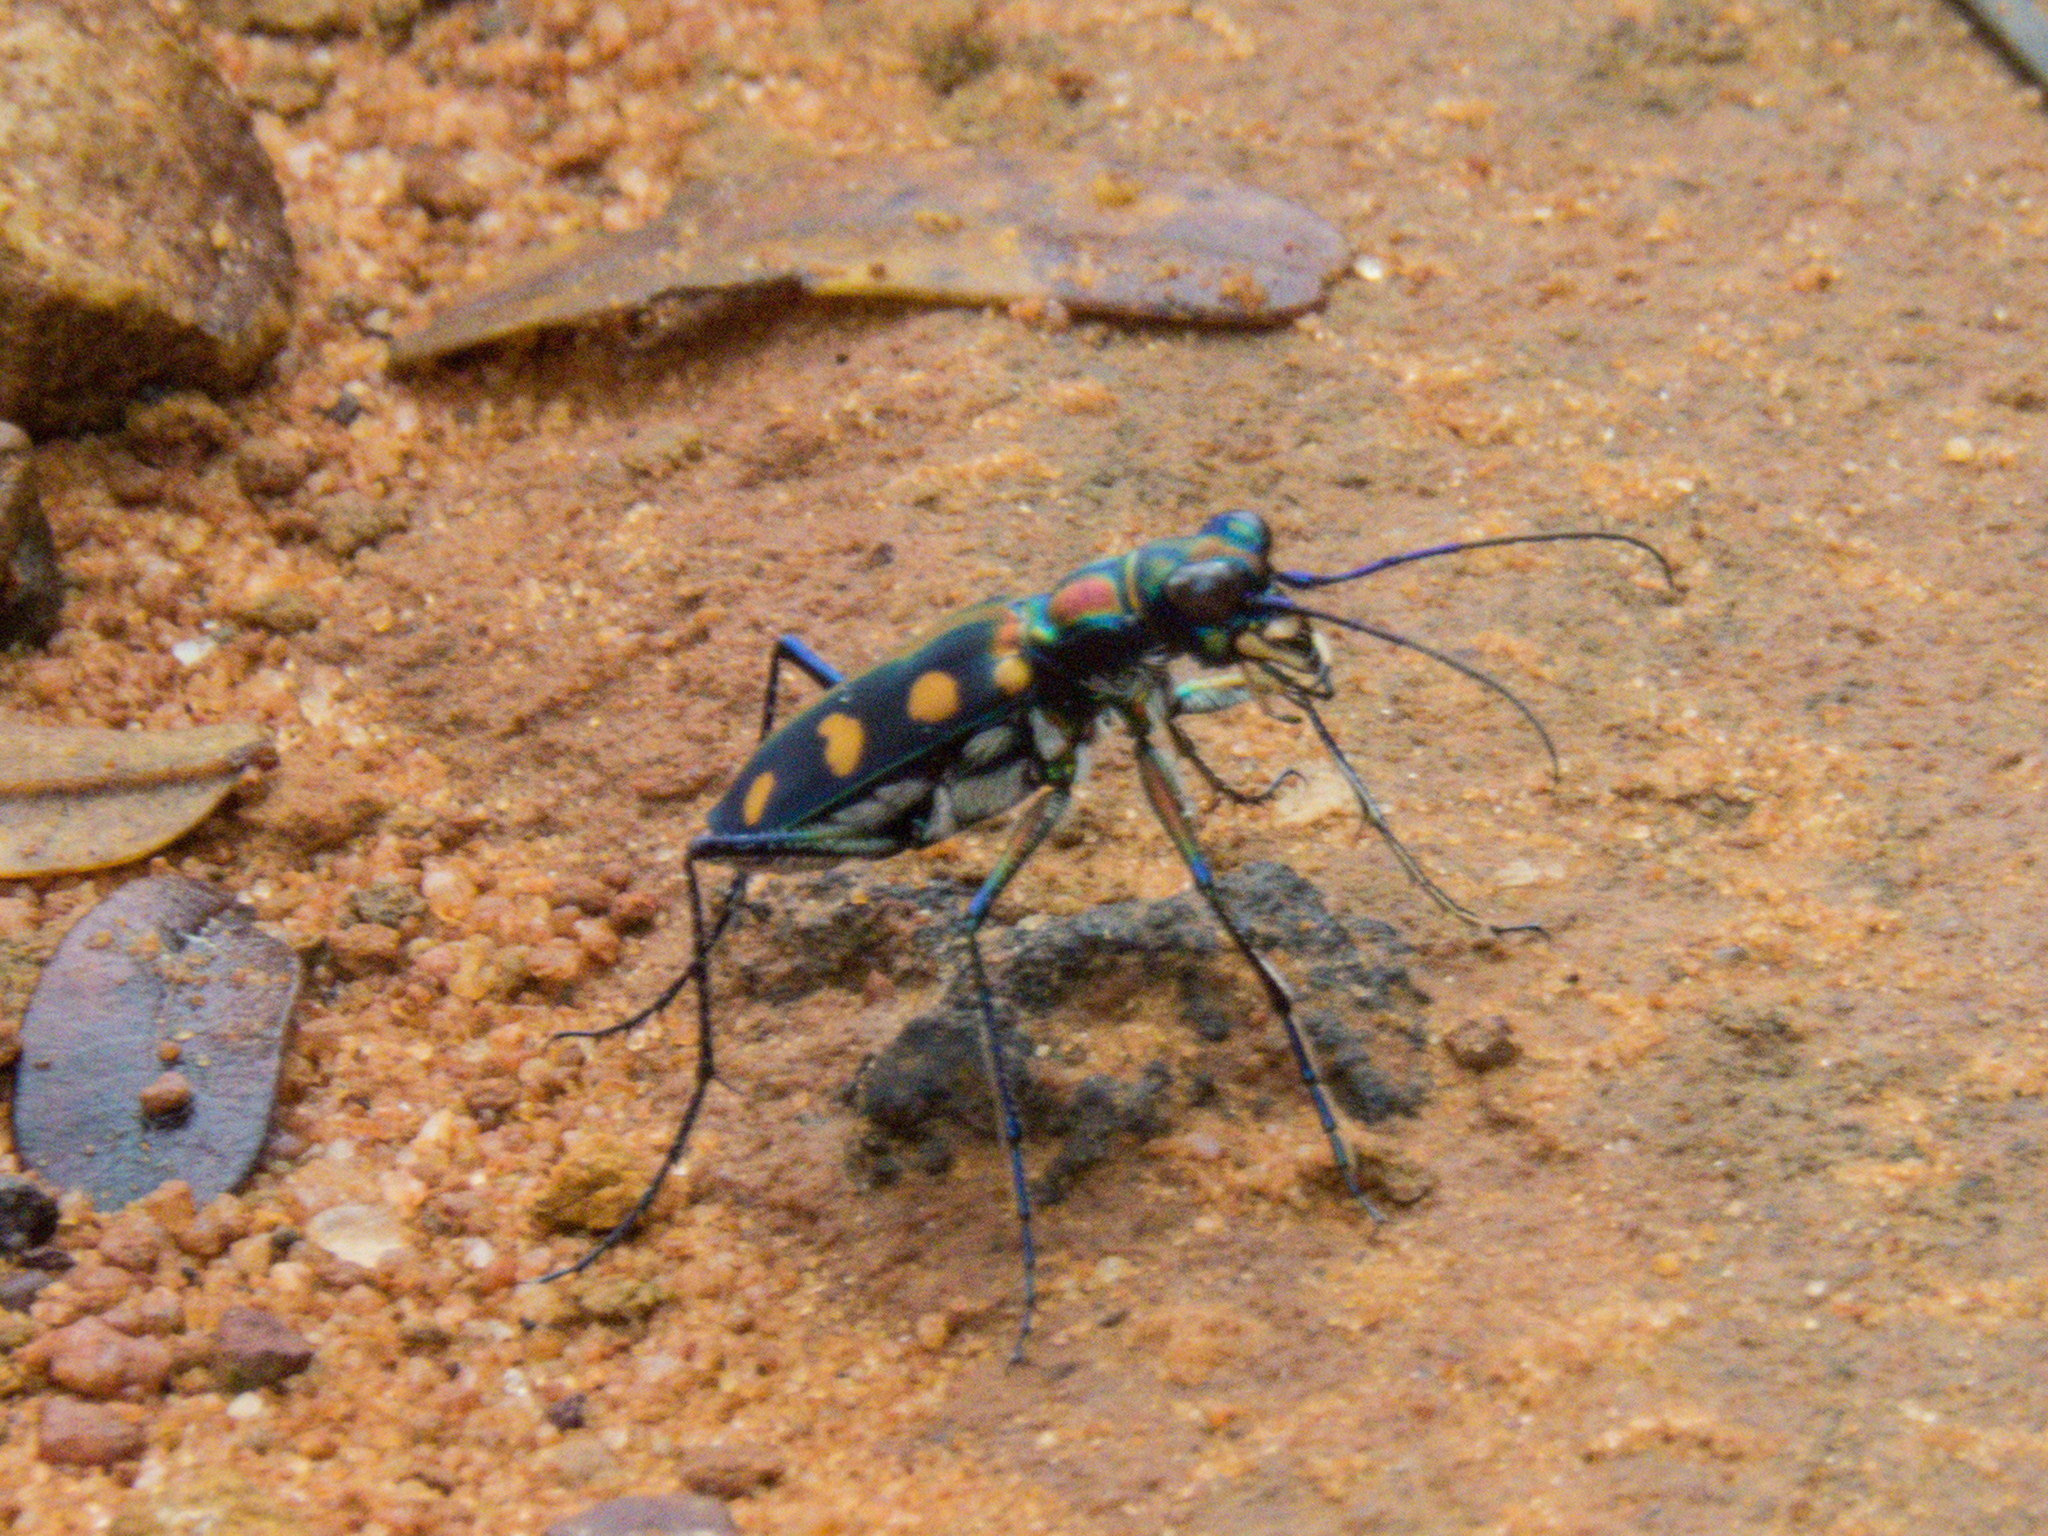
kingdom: Animalia
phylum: Arthropoda
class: Insecta
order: Coleoptera
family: Carabidae
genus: Cicindela
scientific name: Cicindela juxtata
